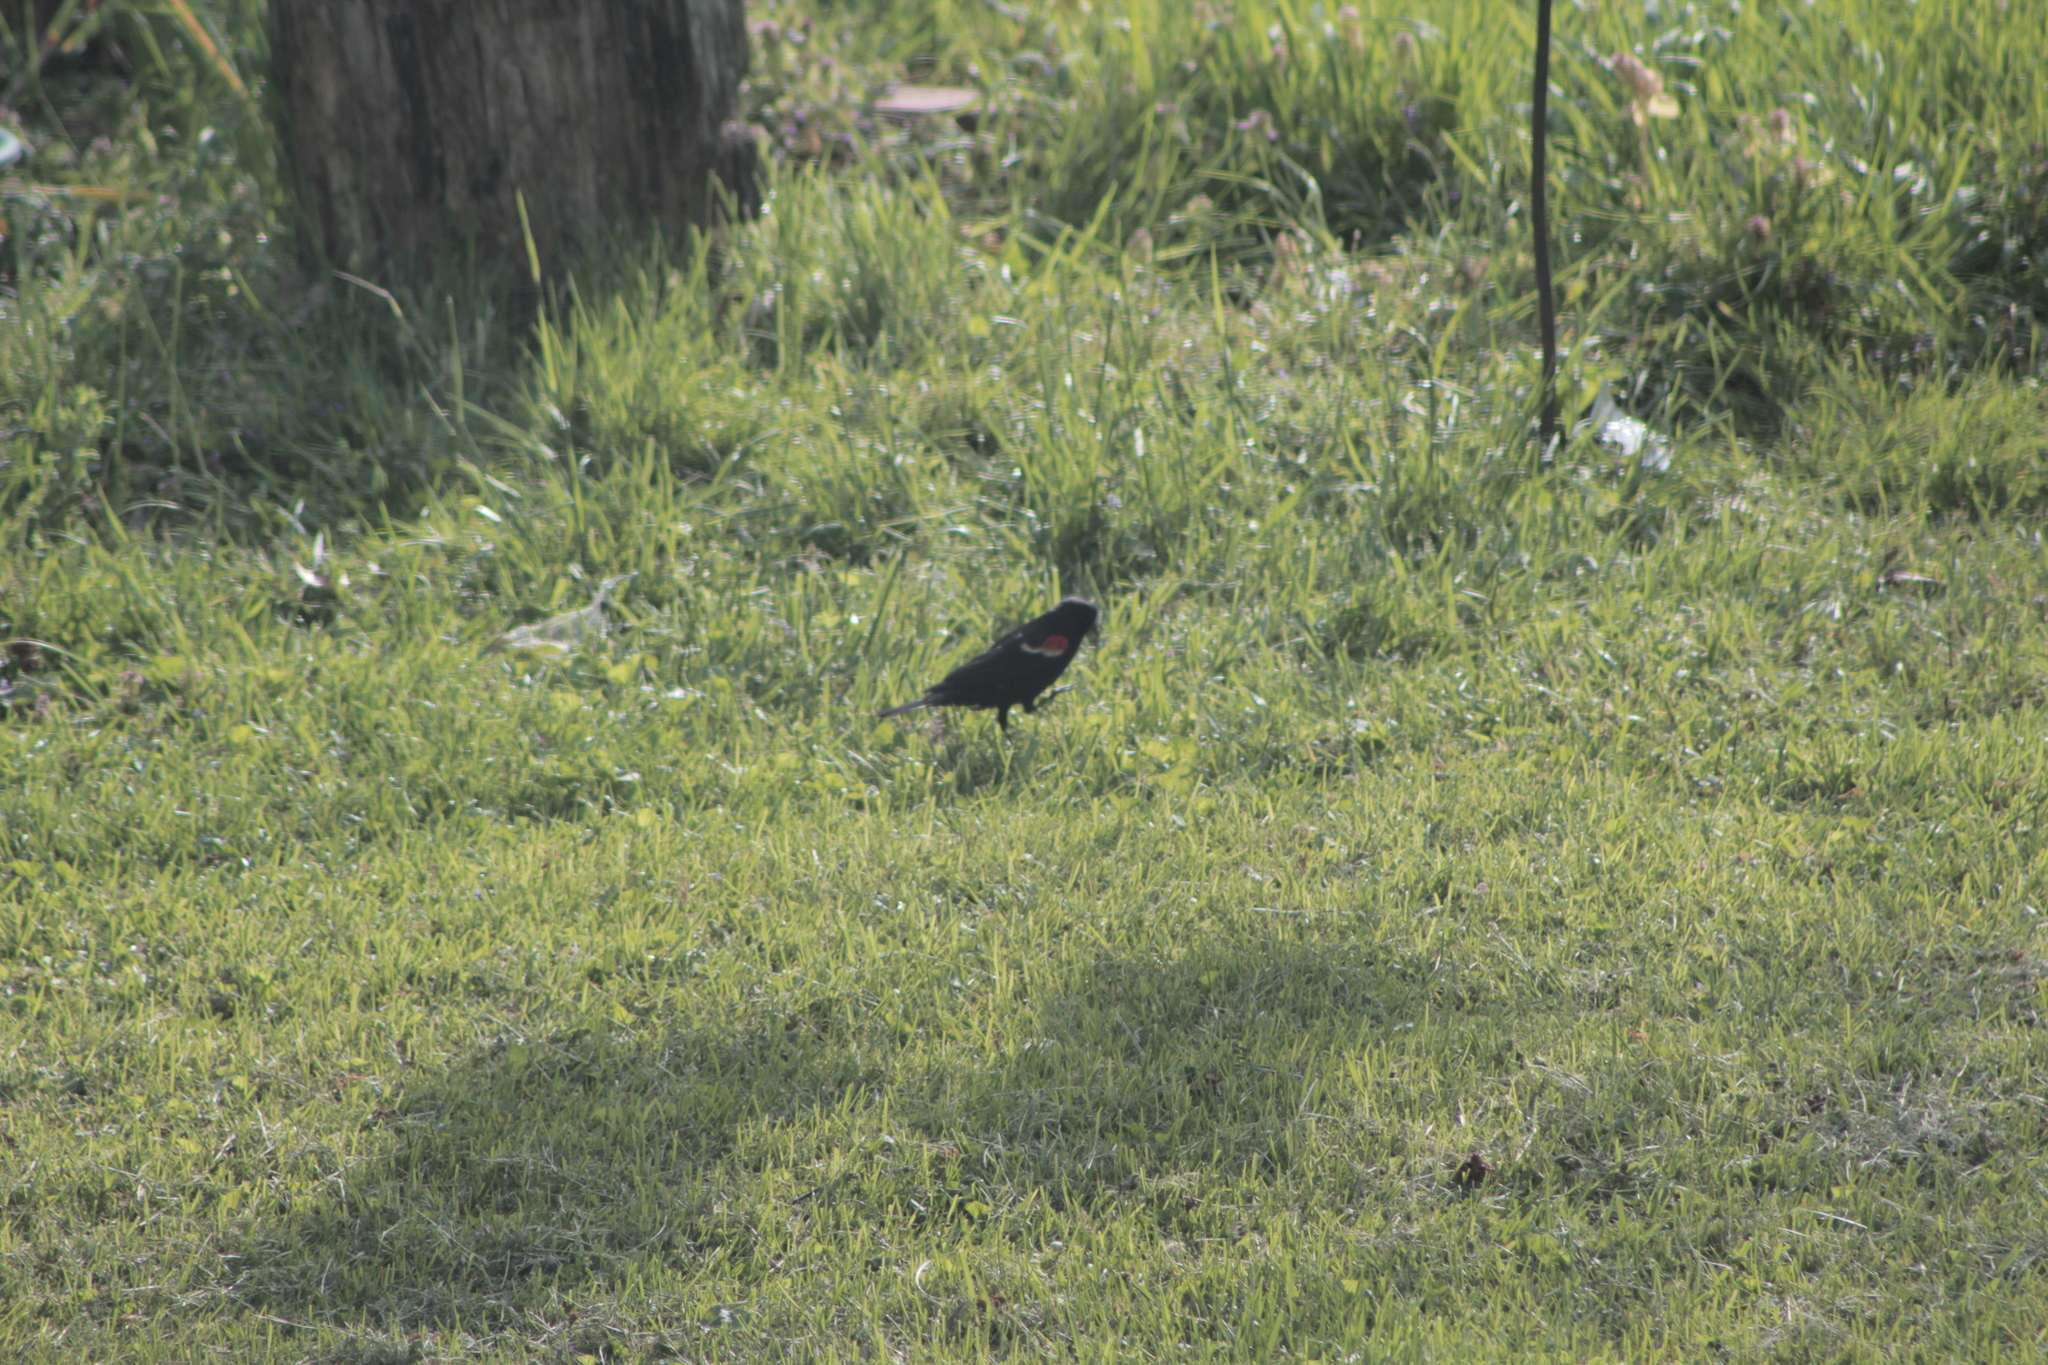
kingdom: Animalia
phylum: Chordata
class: Aves
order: Passeriformes
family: Icteridae
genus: Agelaius
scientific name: Agelaius phoeniceus
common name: Red-winged blackbird
